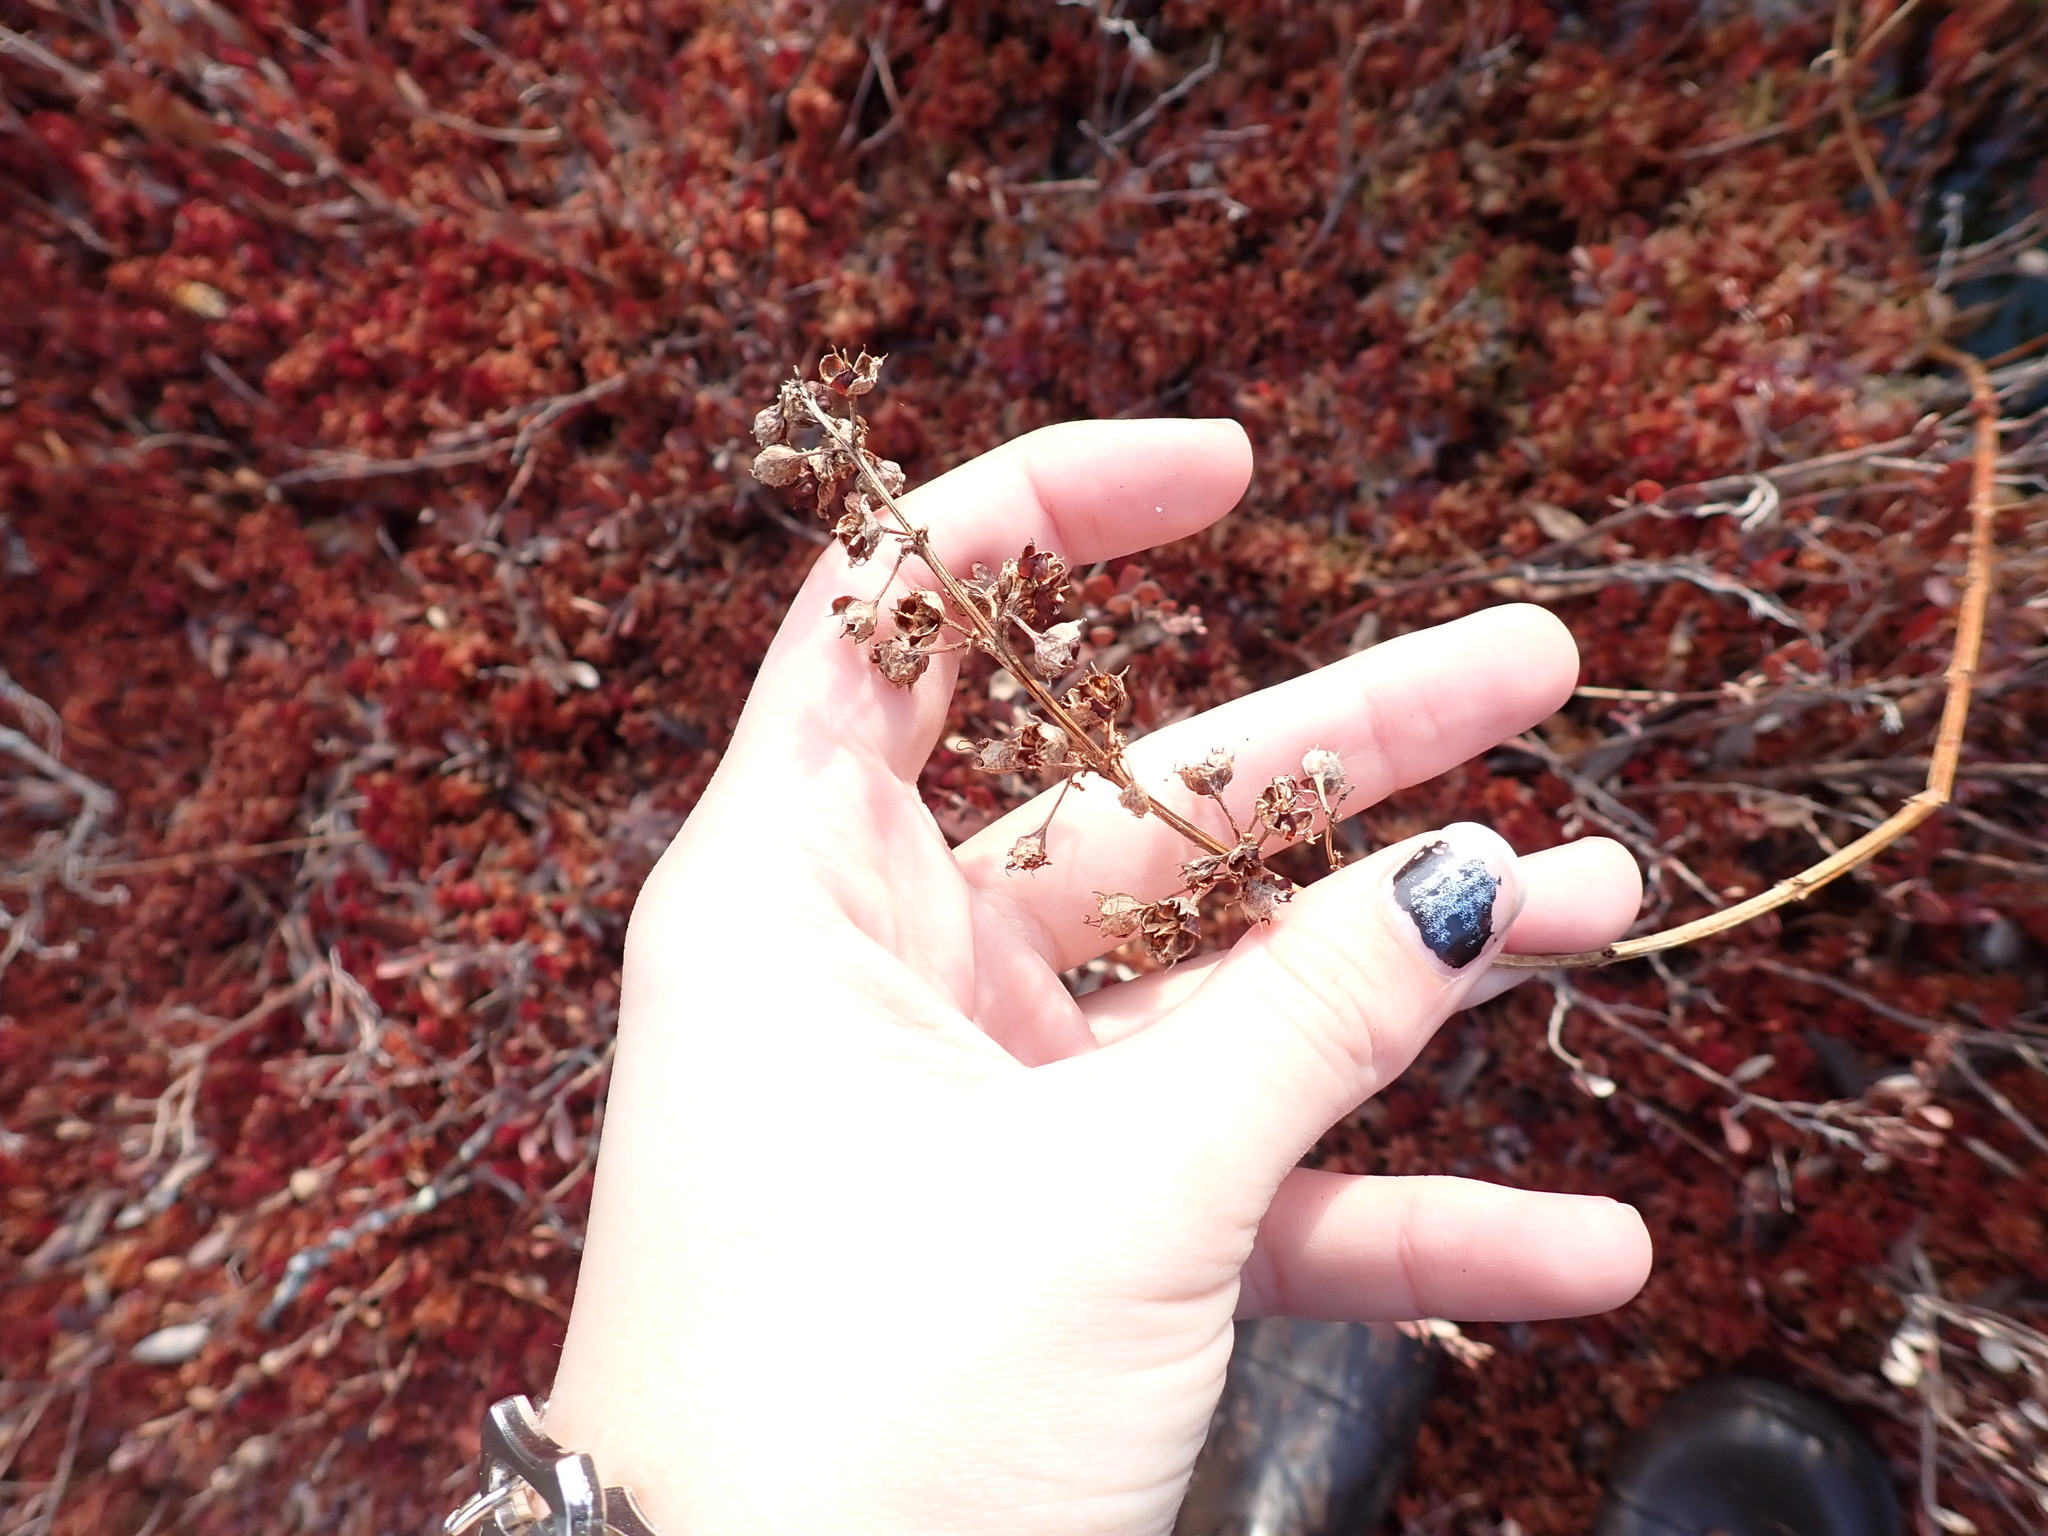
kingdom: Plantae
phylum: Tracheophyta
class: Magnoliopsida
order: Myrtales
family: Lythraceae
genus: Decodon
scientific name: Decodon verticillatus
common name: Hairy swamp loosestrife
